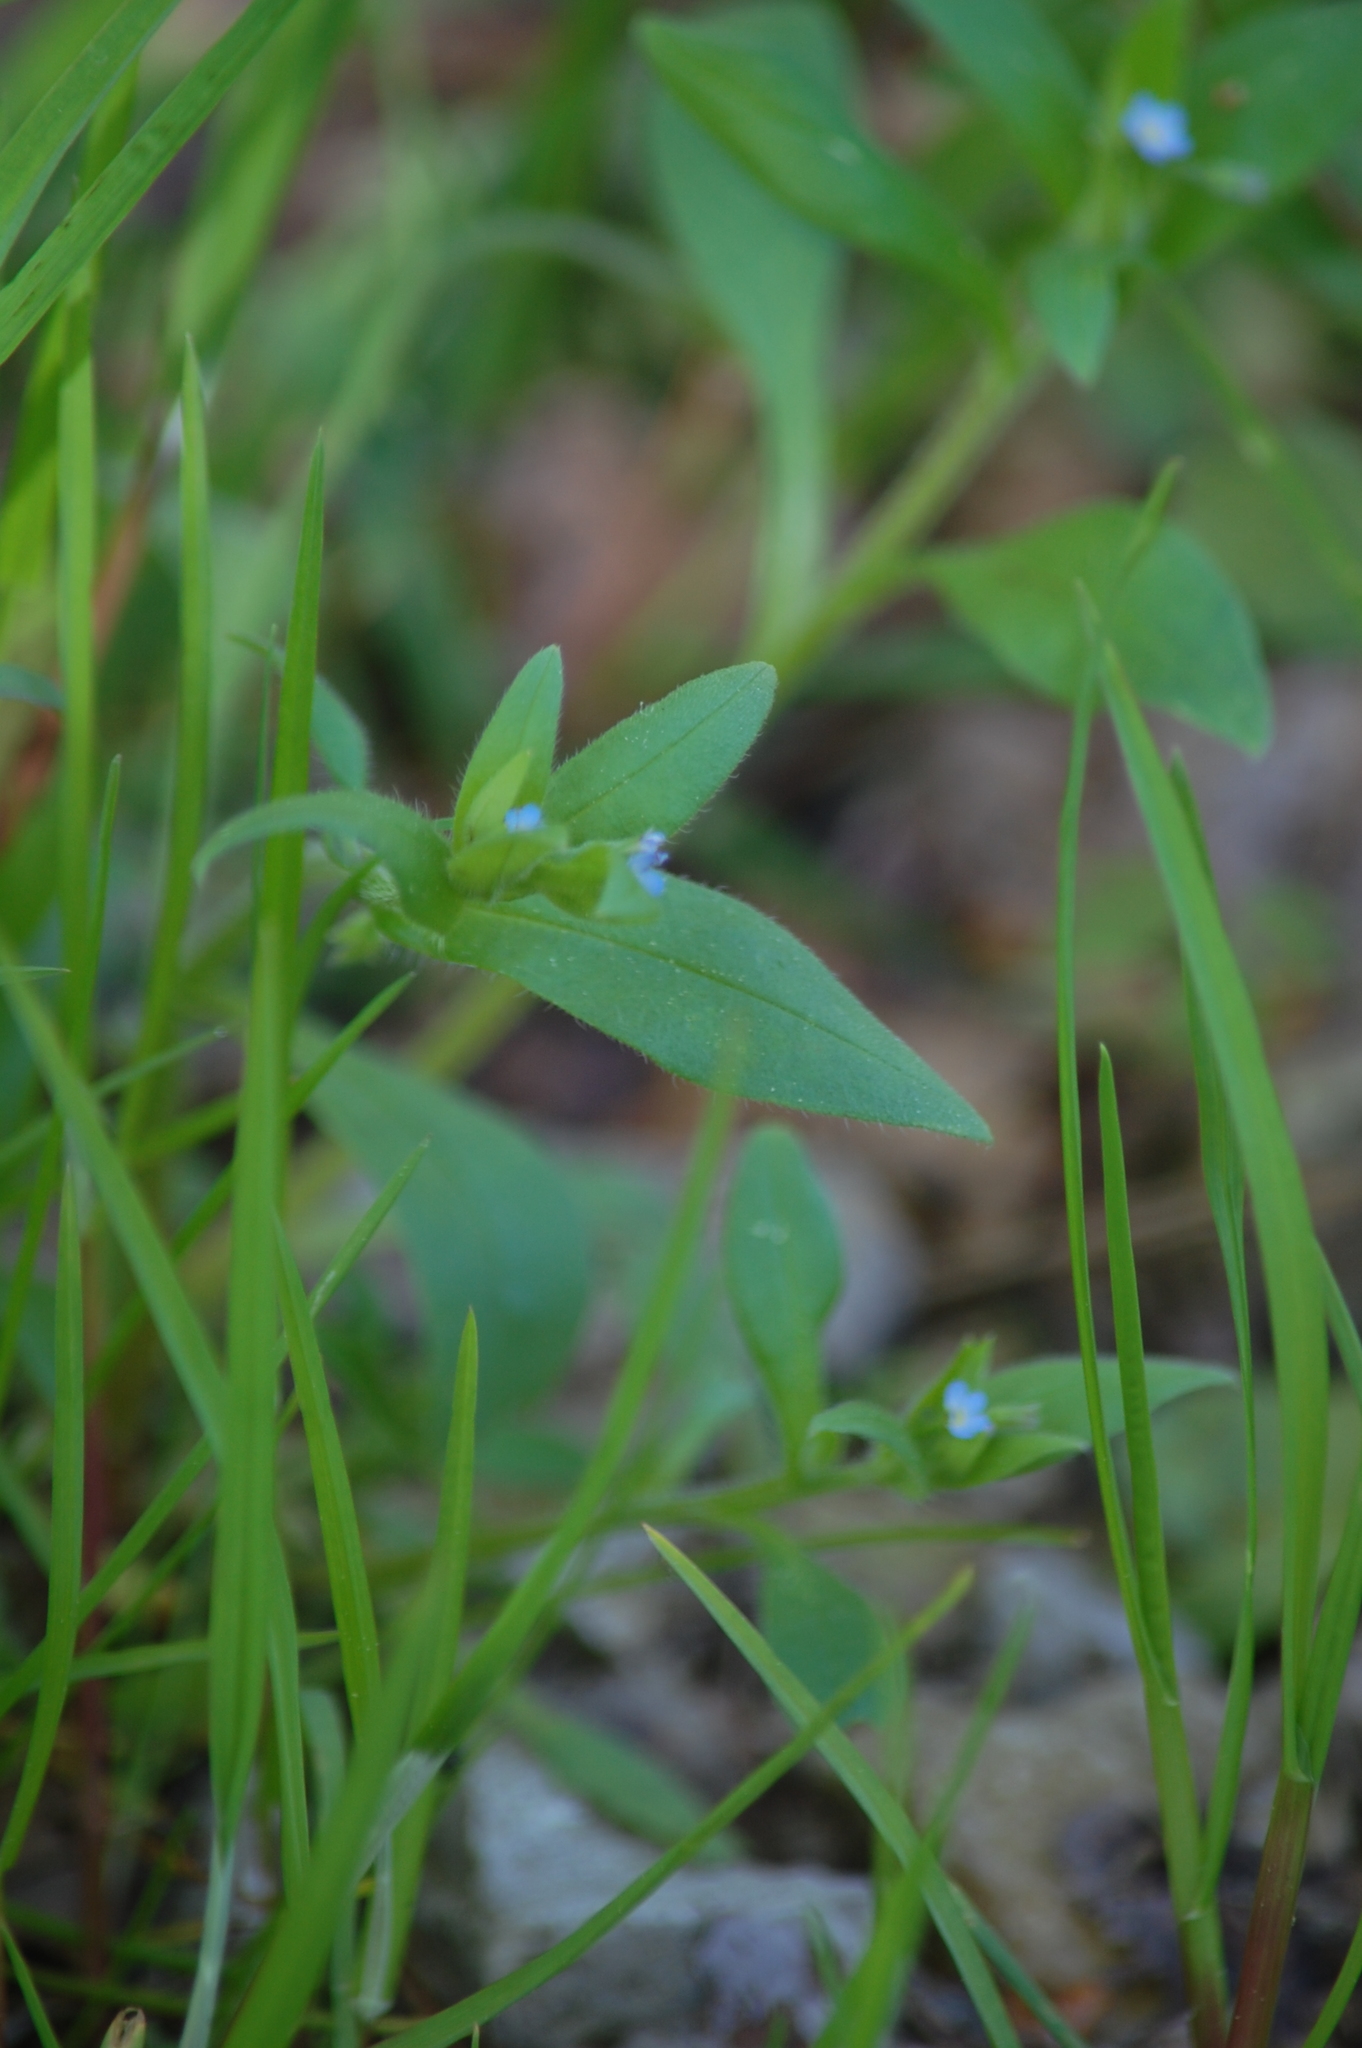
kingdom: Plantae
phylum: Tracheophyta
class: Magnoliopsida
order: Boraginales
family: Boraginaceae
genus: Myosotis
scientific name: Myosotis sparsiflora
